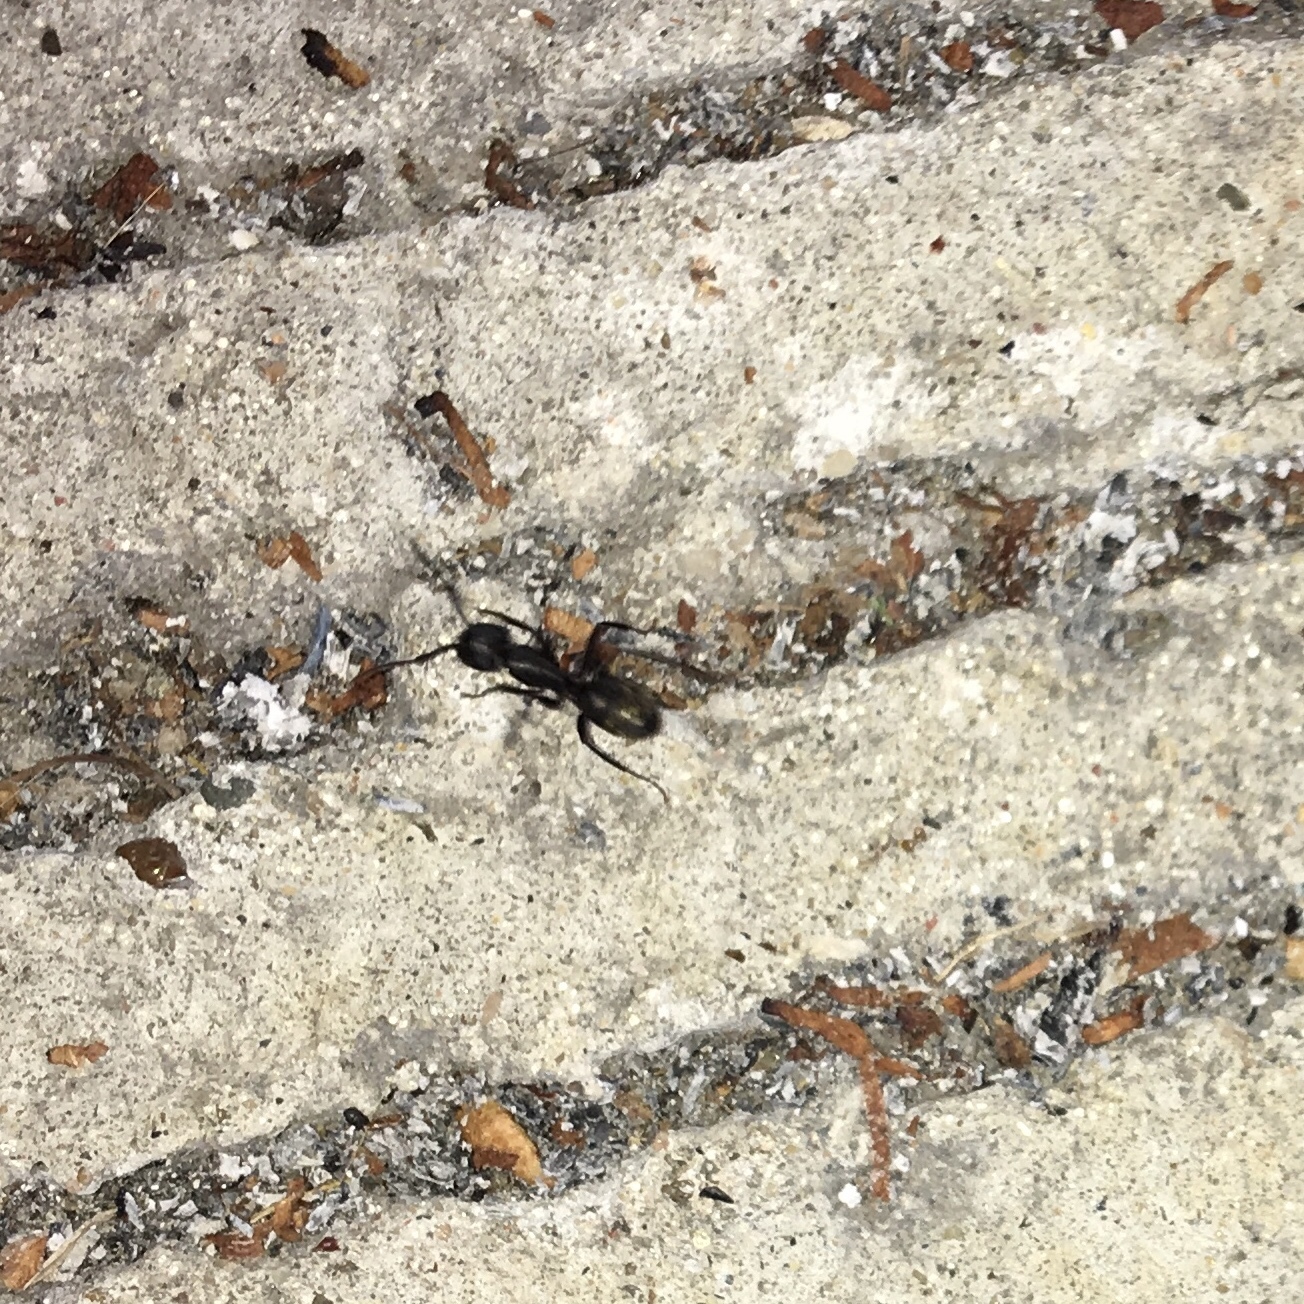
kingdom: Animalia
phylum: Arthropoda
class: Insecta
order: Hymenoptera
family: Formicidae
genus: Camponotus
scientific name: Camponotus pennsylvanicus
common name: Black carpenter ant
